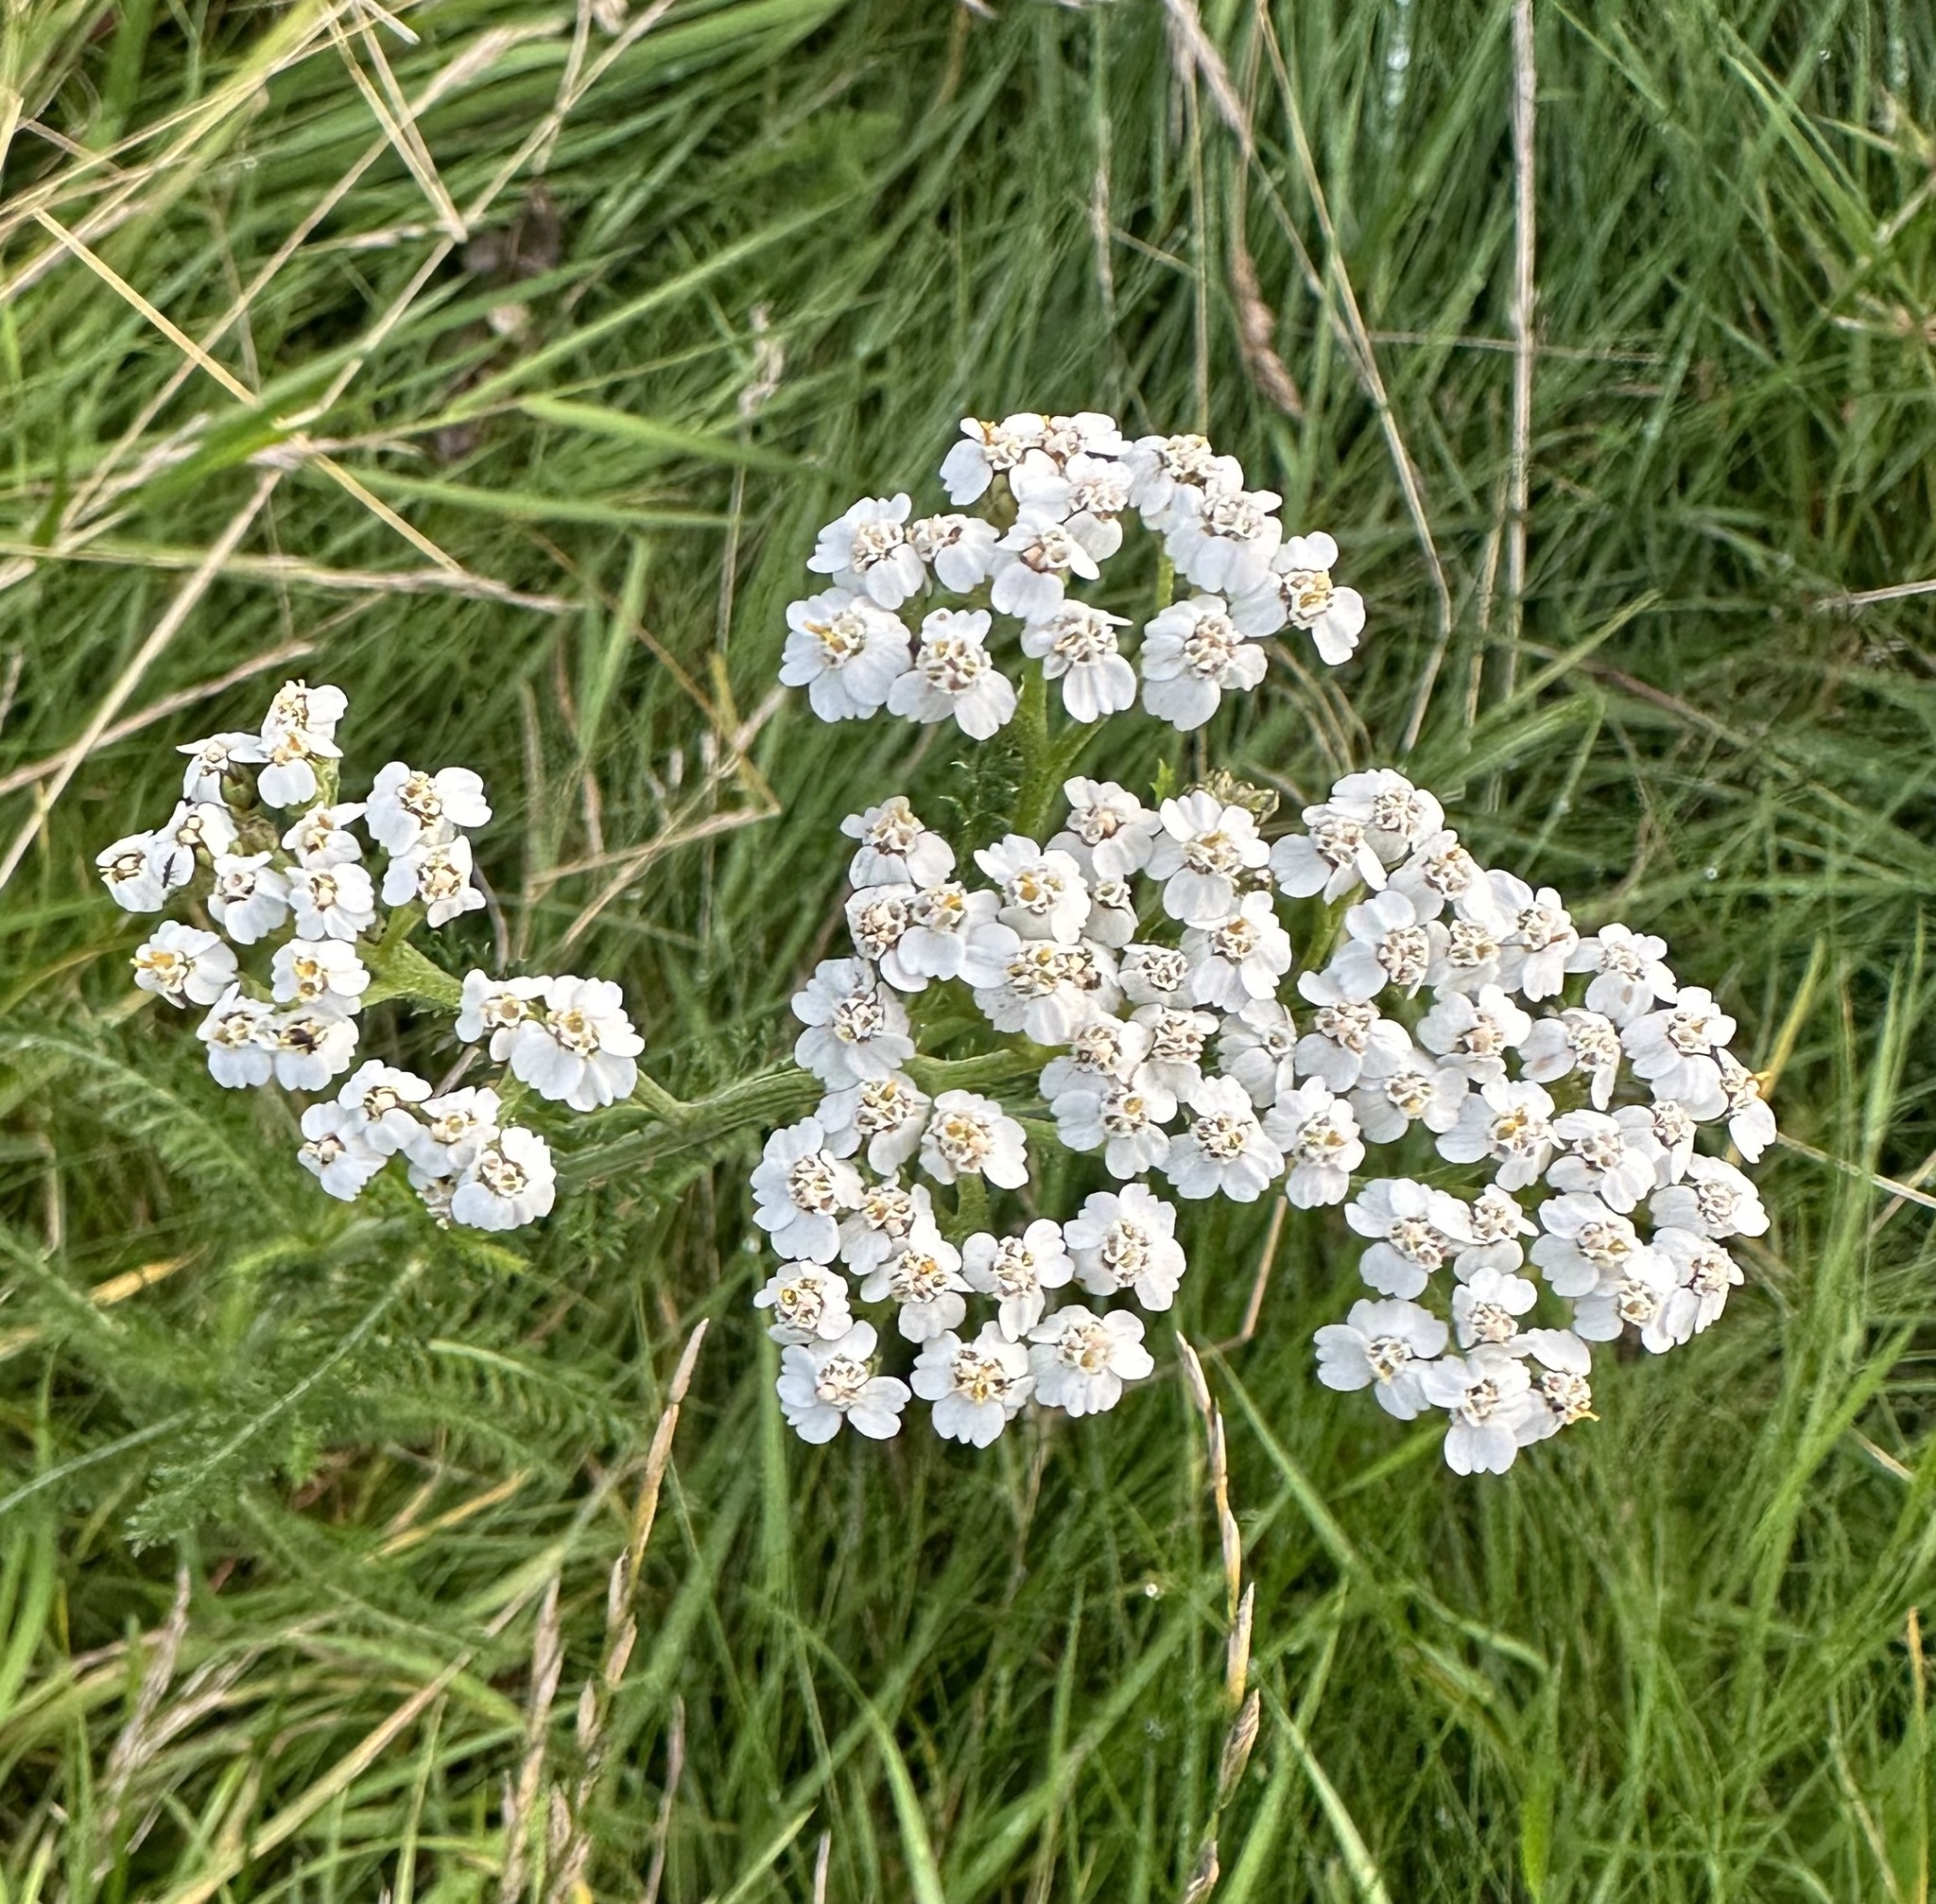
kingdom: Plantae
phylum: Tracheophyta
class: Magnoliopsida
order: Asterales
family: Asteraceae
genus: Achillea
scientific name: Achillea millefolium
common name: Yarrow
